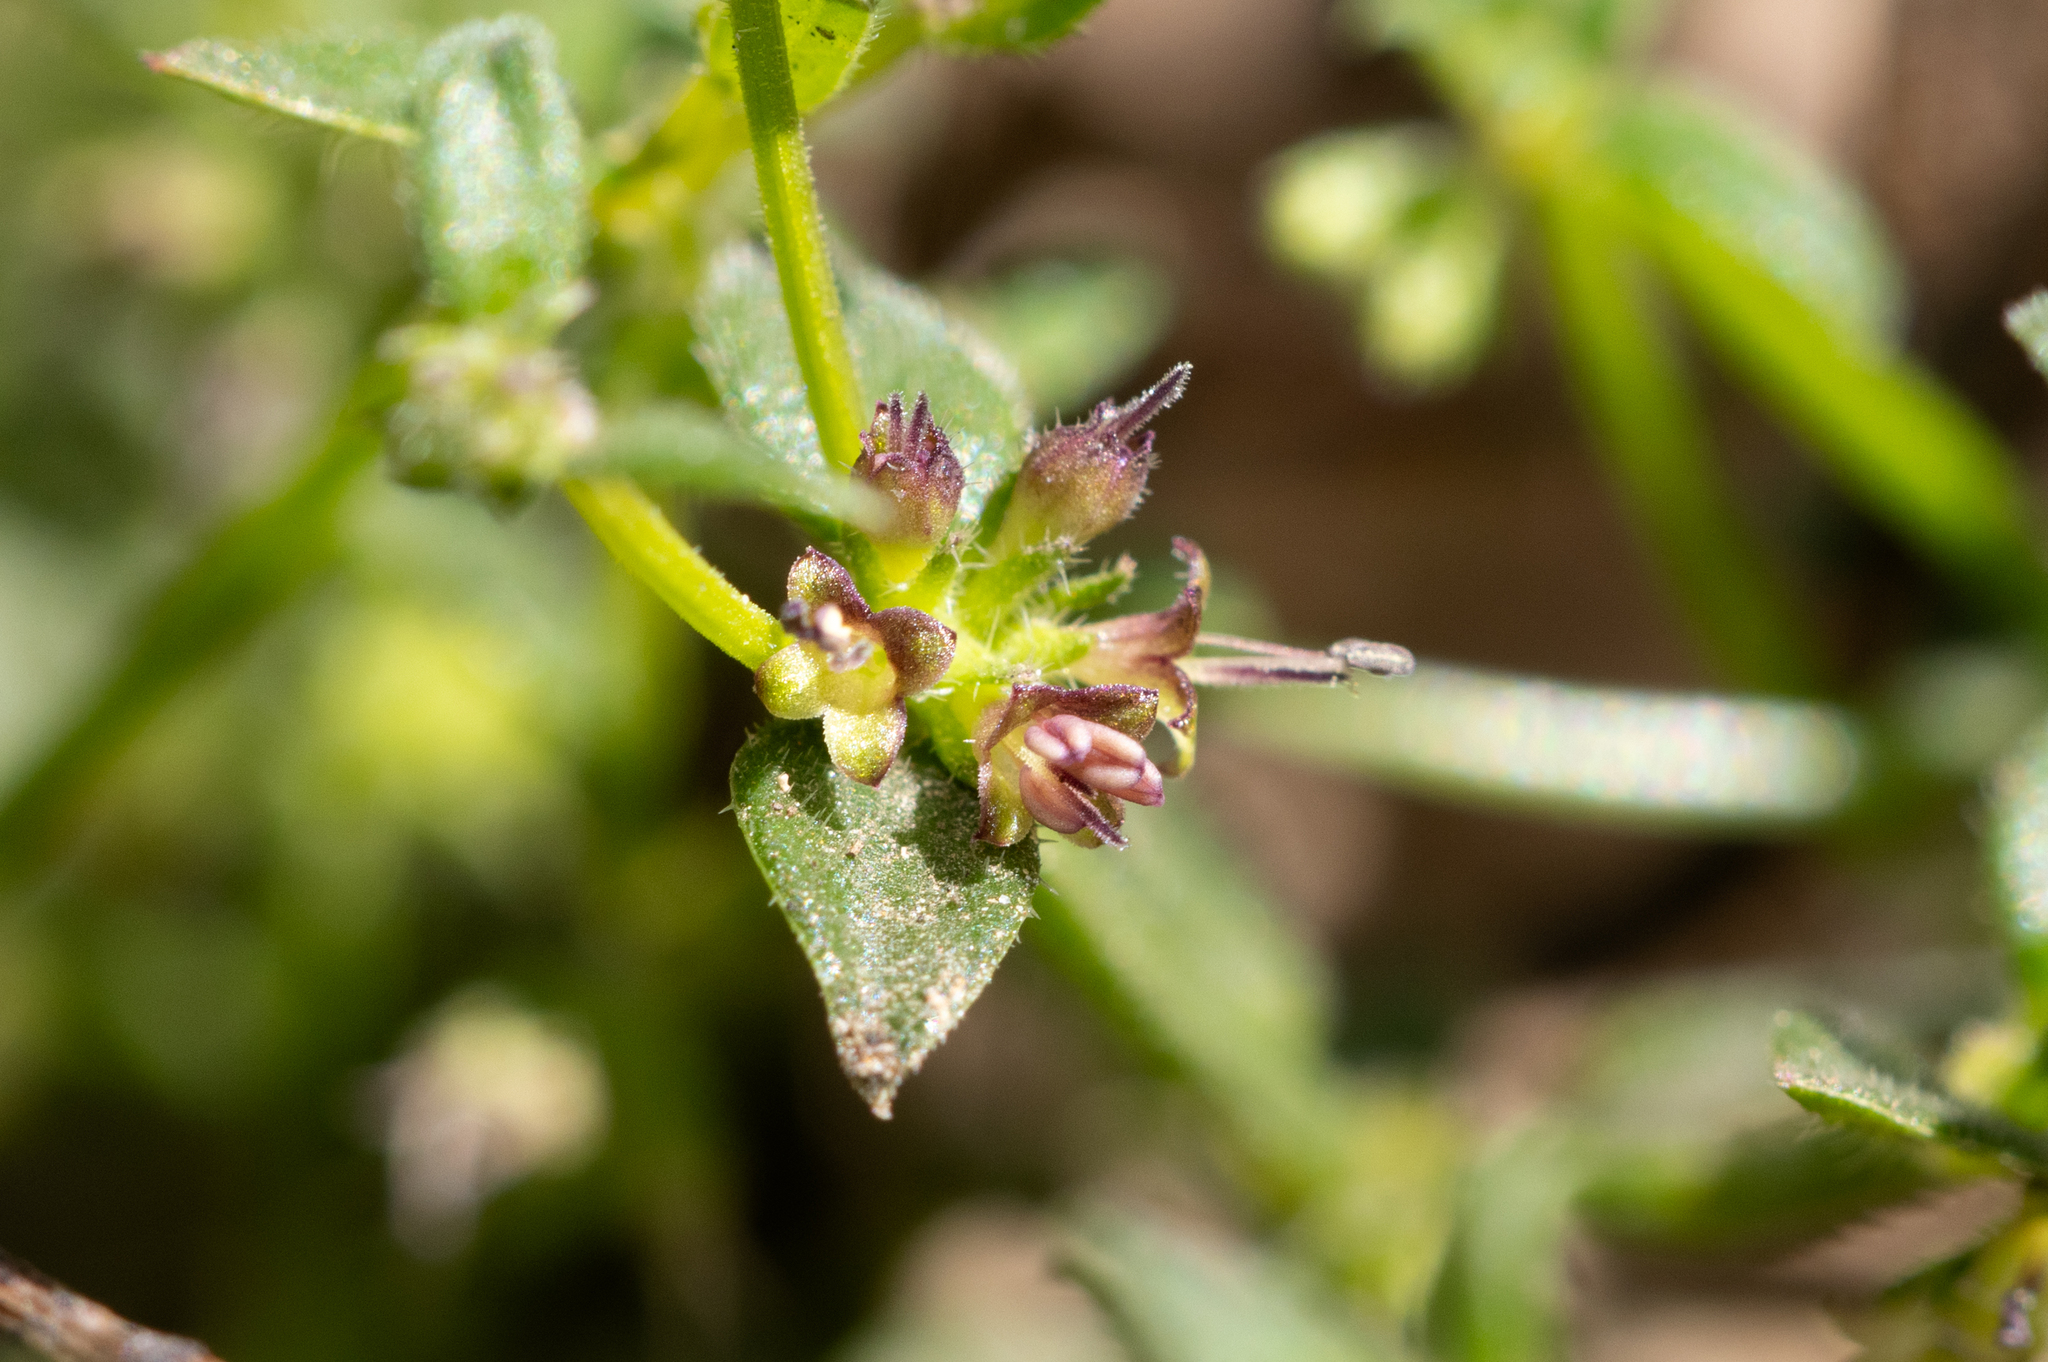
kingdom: Plantae
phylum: Tracheophyta
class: Magnoliopsida
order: Gentianales
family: Rubiaceae
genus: Opercularia
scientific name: Opercularia varia
